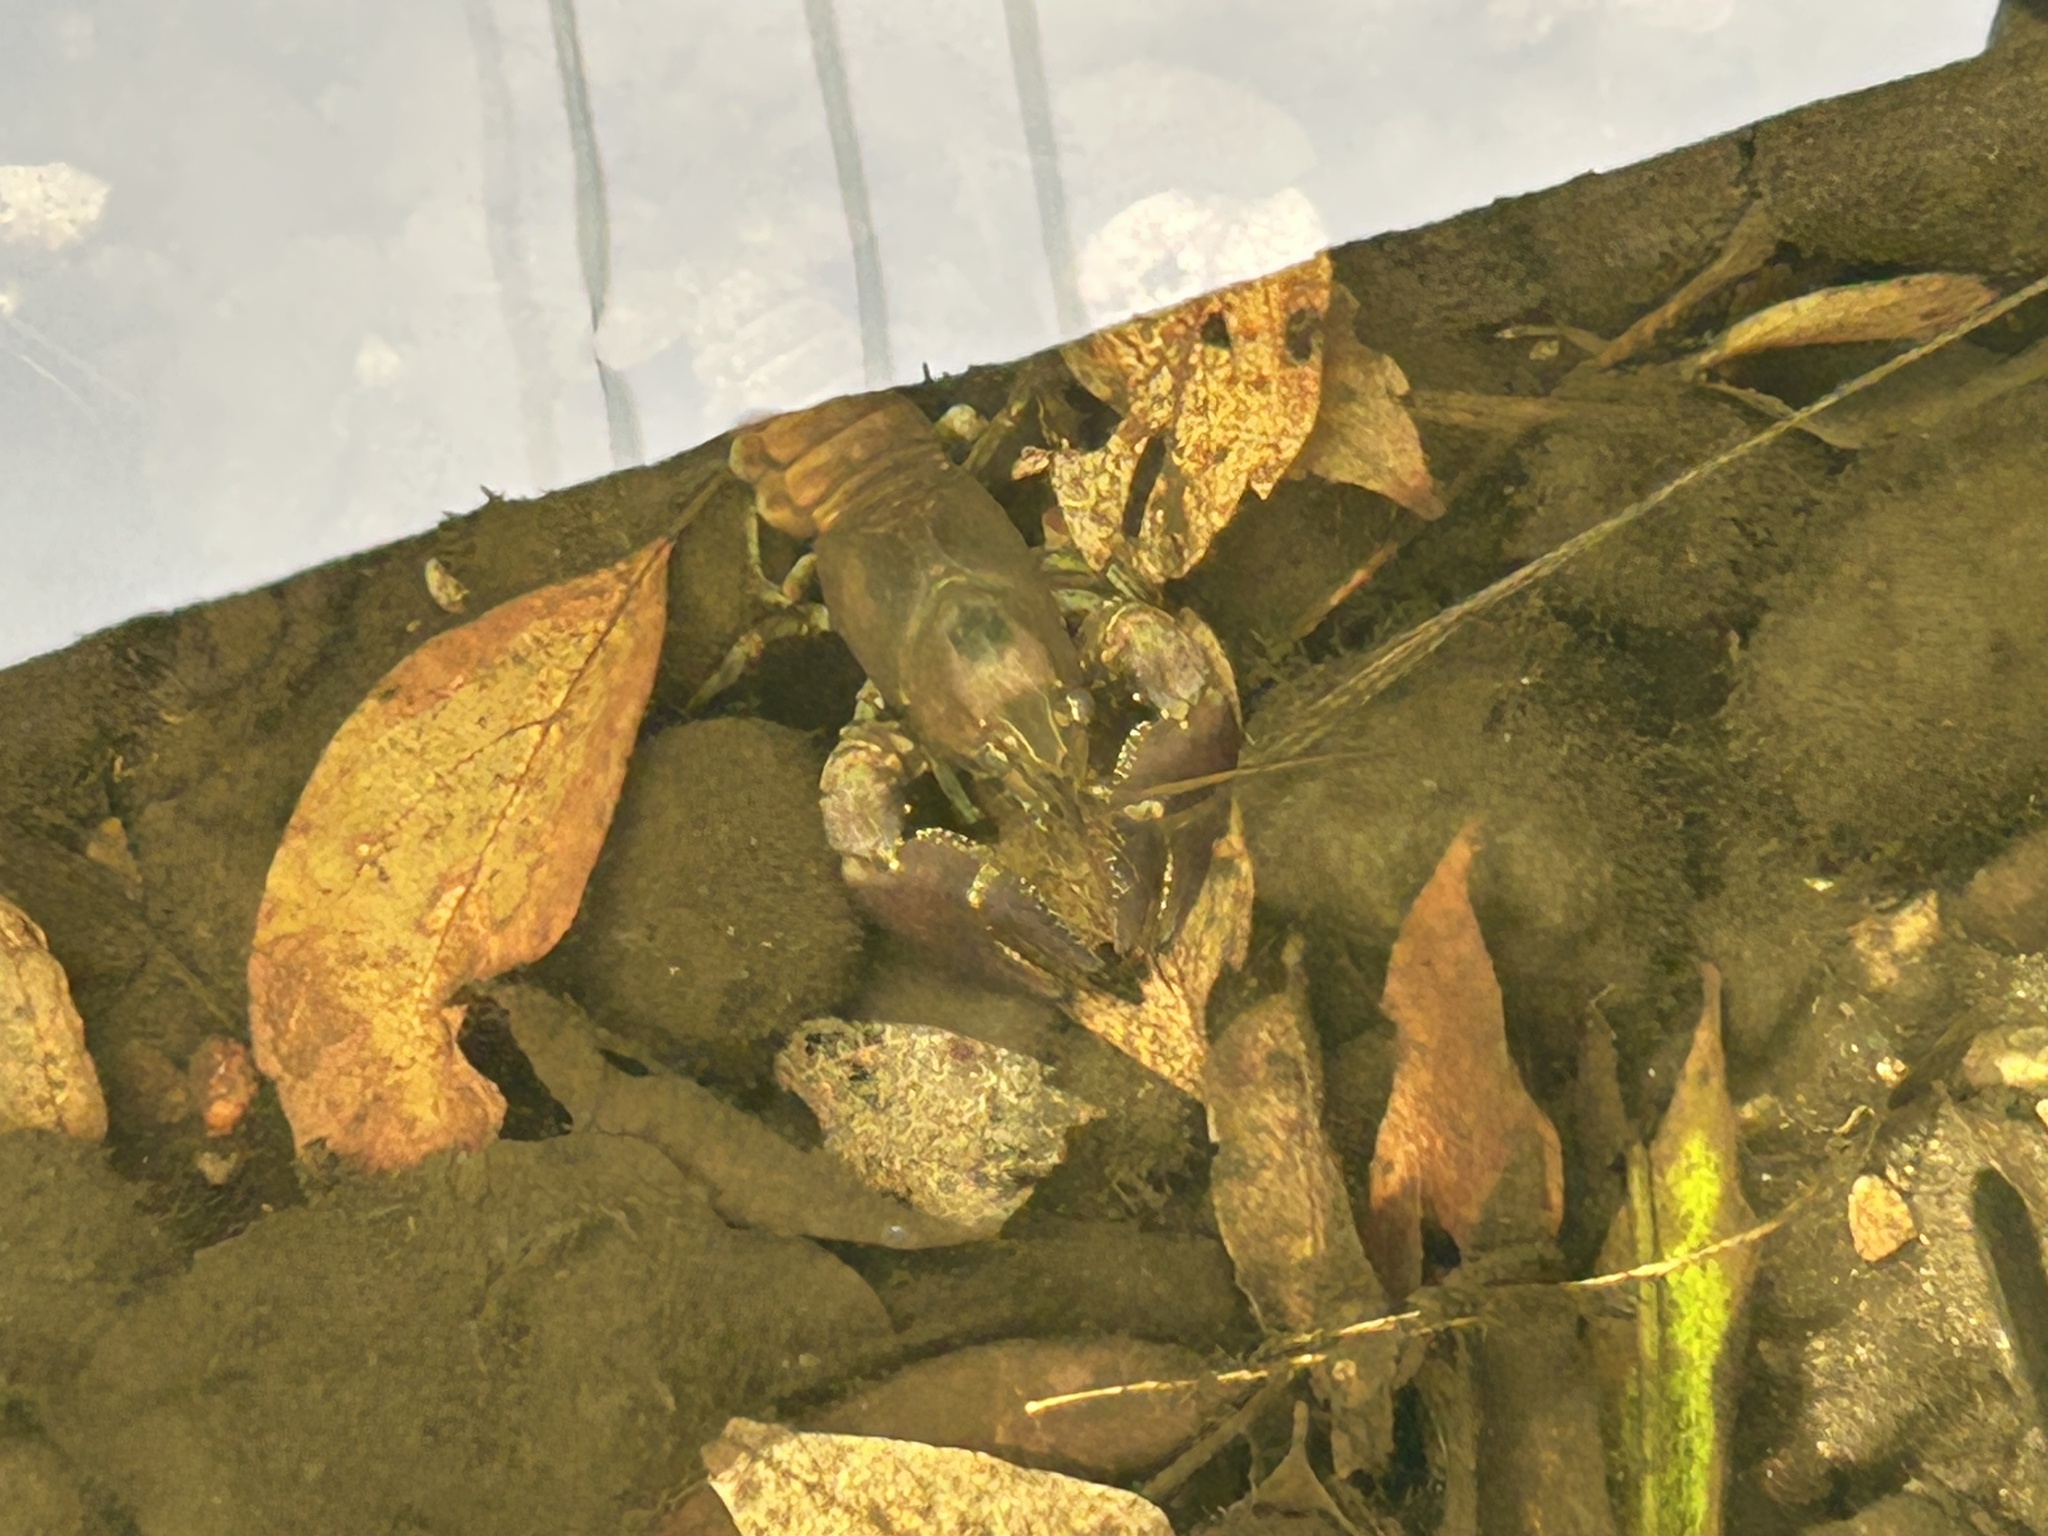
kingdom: Animalia
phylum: Arthropoda
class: Malacostraca
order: Decapoda
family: Cambaridae
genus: Faxonius
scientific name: Faxonius rusticus
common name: Rusty crayfish
